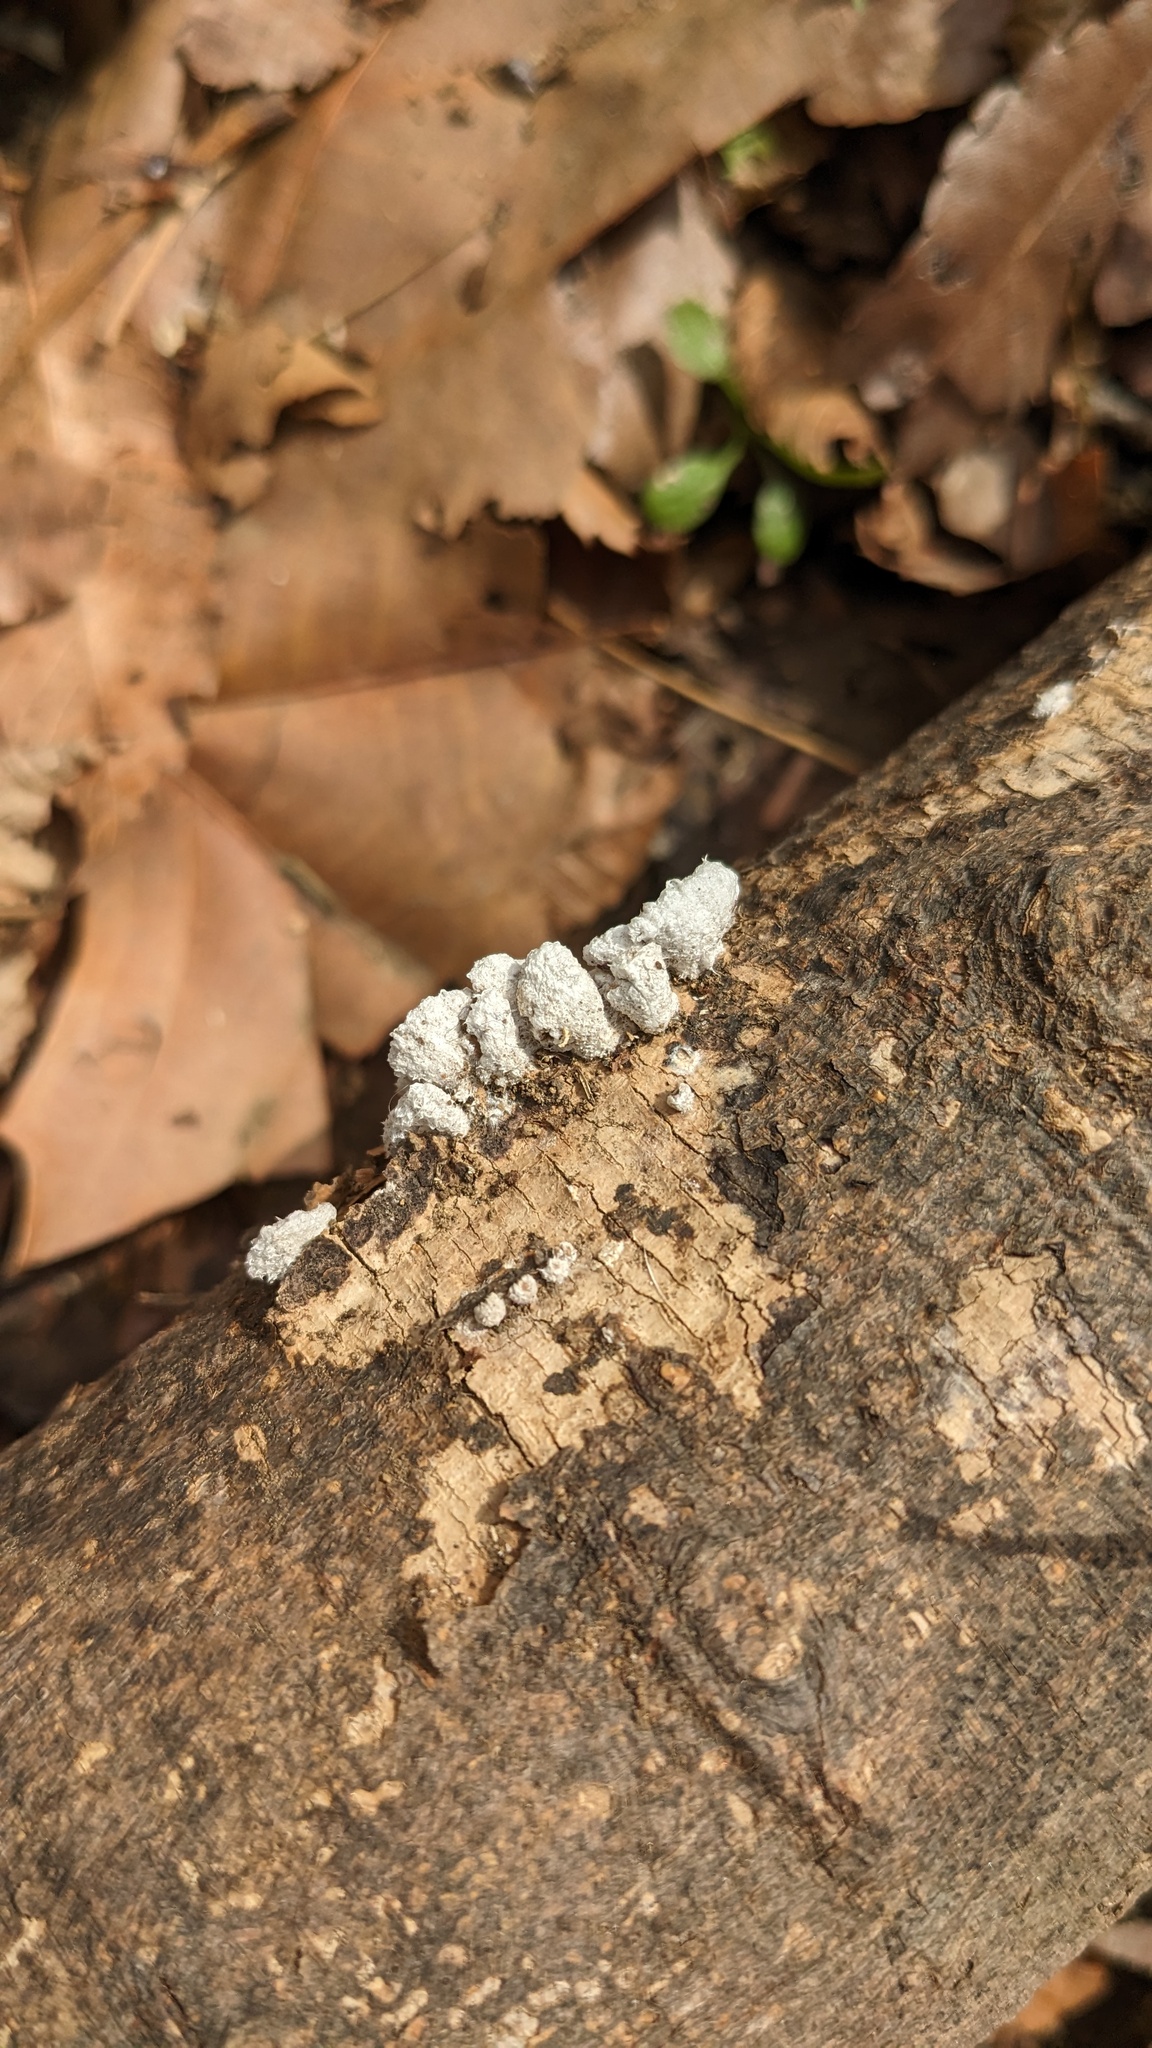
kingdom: Fungi
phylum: Basidiomycota
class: Agaricomycetes
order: Agaricales
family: Schizophyllaceae
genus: Schizophyllum
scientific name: Schizophyllum commune
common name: Common porecrust
